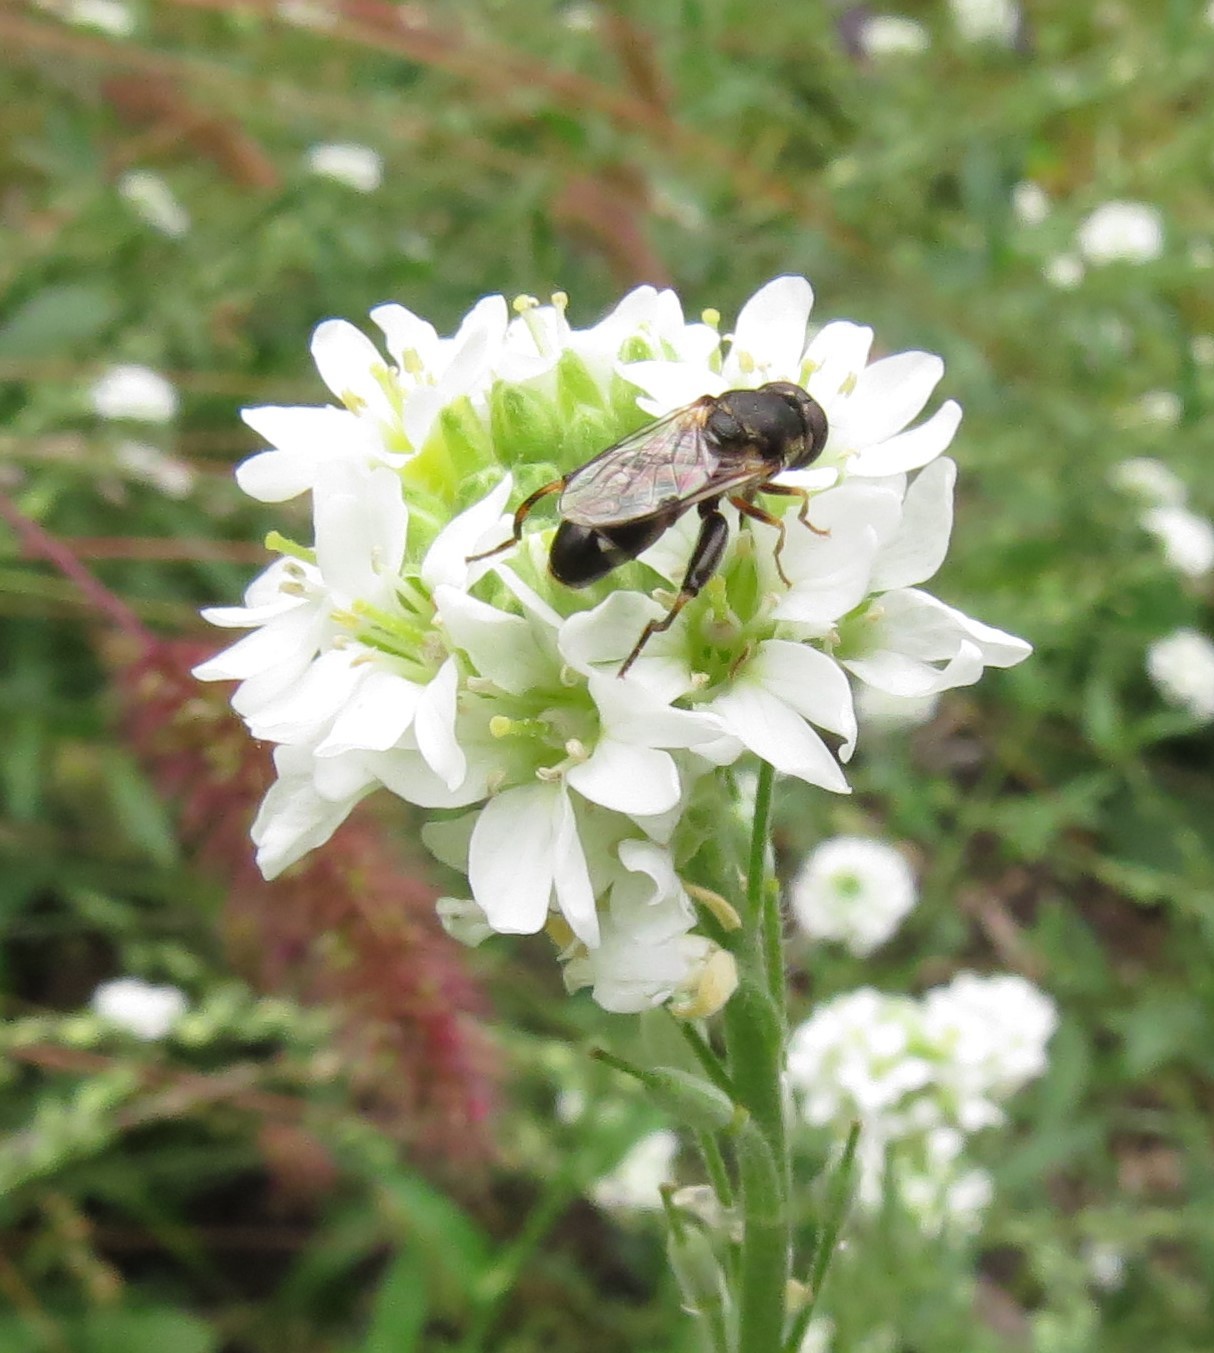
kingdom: Animalia
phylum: Arthropoda
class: Insecta
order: Diptera
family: Syrphidae
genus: Syritta
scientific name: Syritta pipiens
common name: Hover fly
